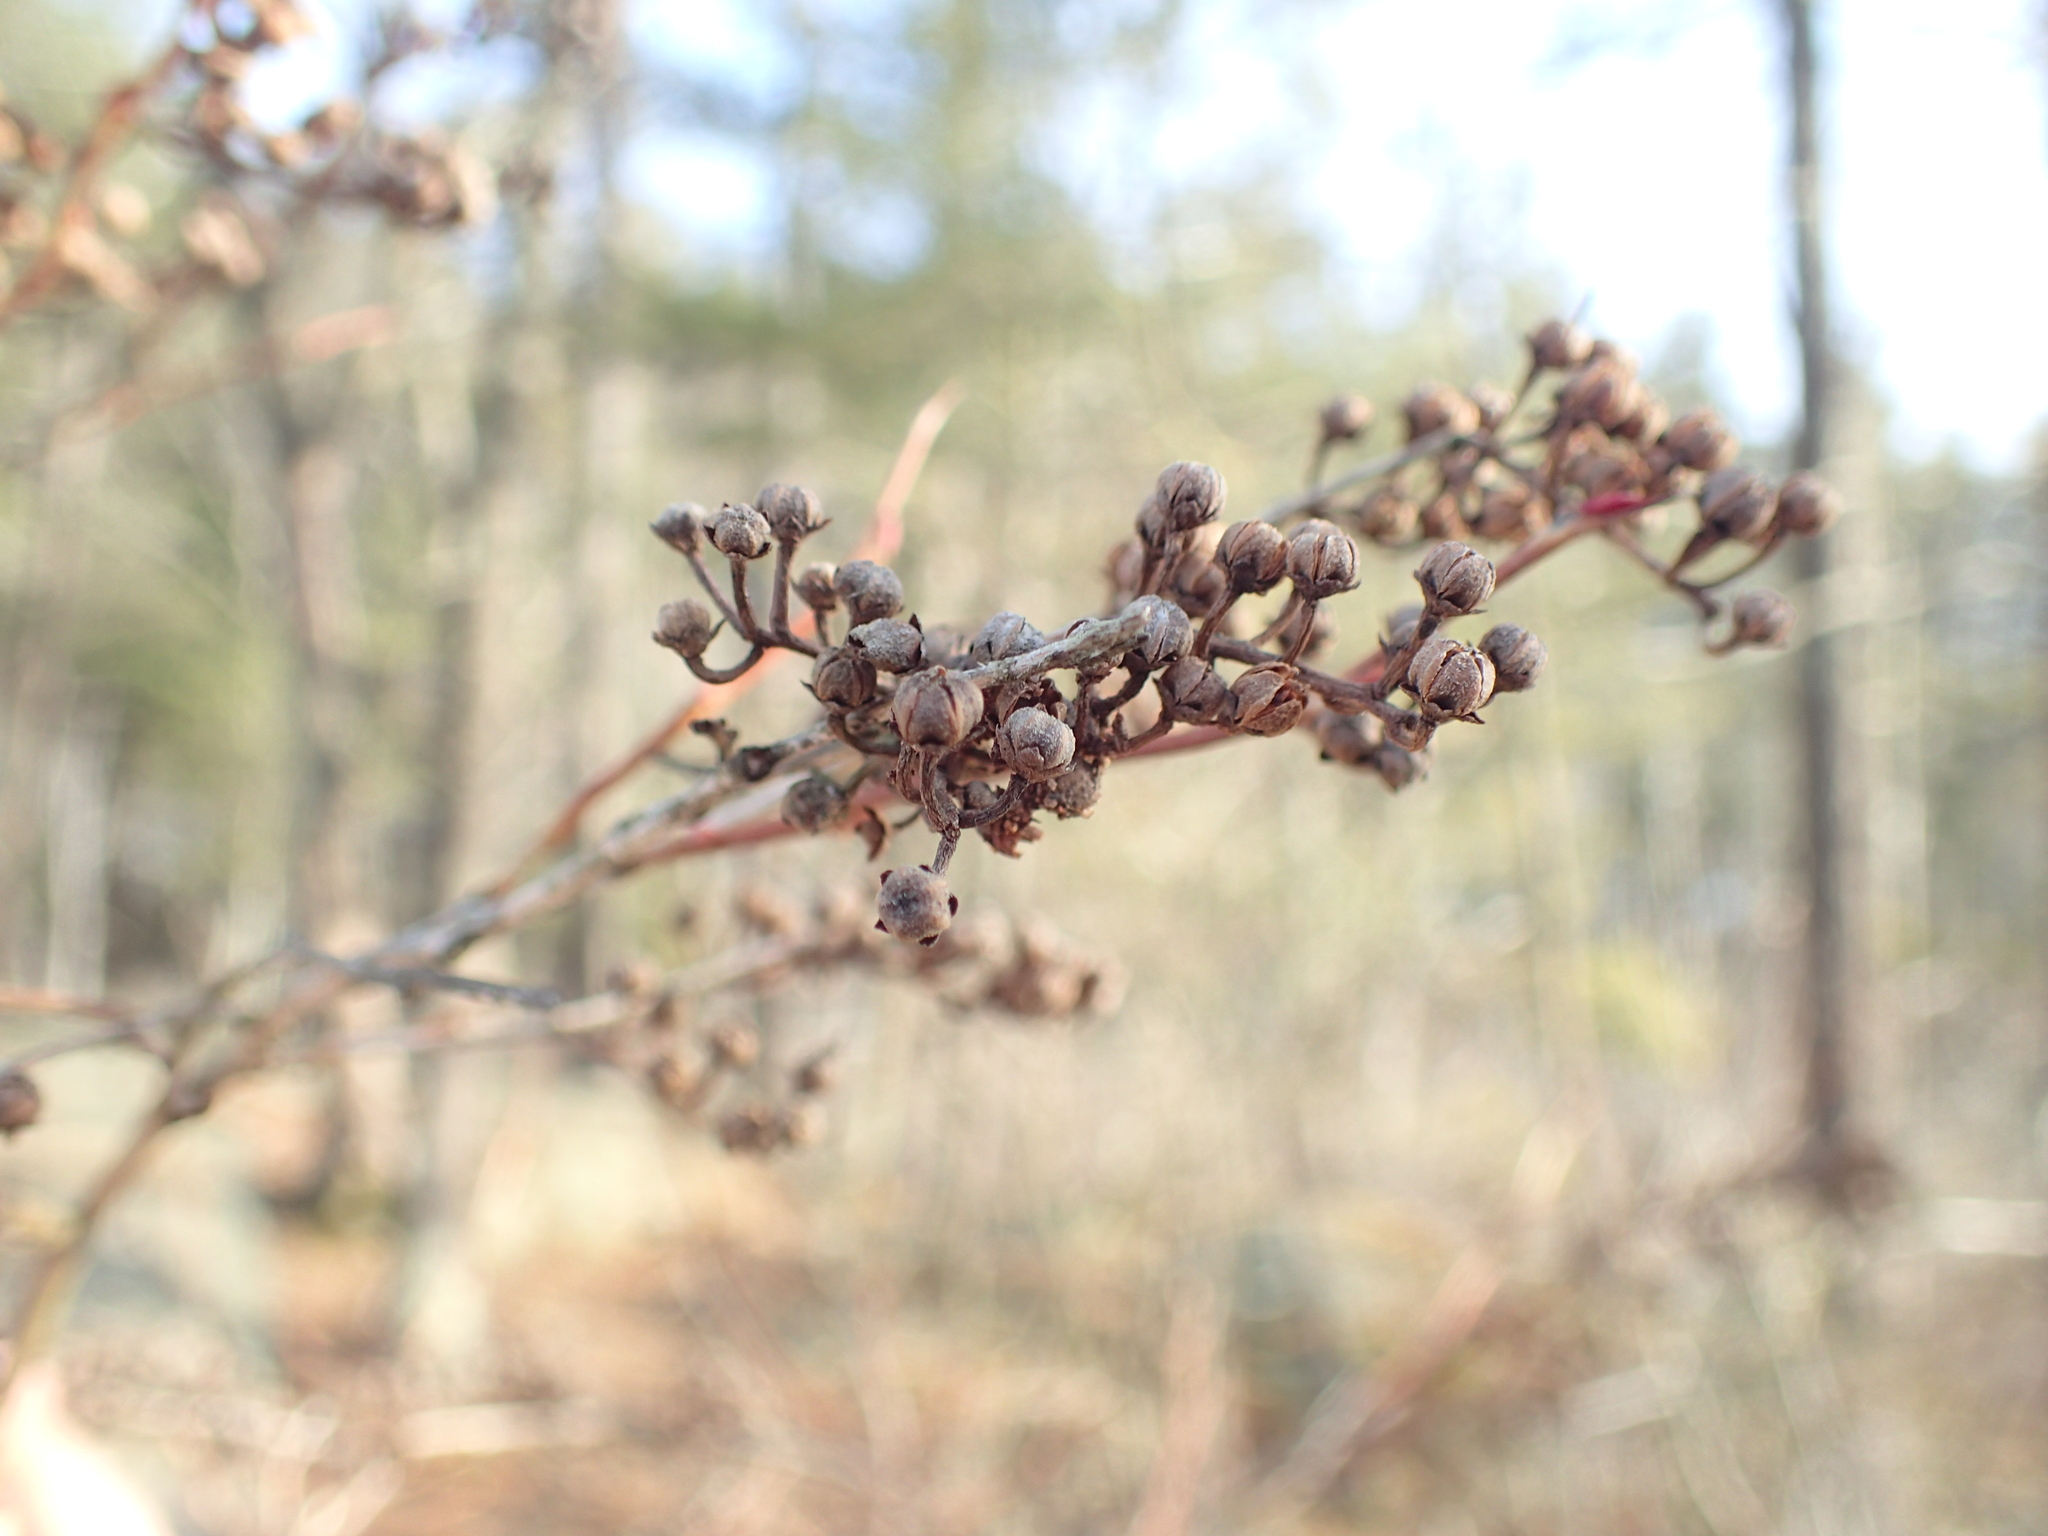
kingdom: Plantae
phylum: Tracheophyta
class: Magnoliopsida
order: Ericales
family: Ericaceae
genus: Lyonia
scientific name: Lyonia ligustrina
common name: Maleberry
